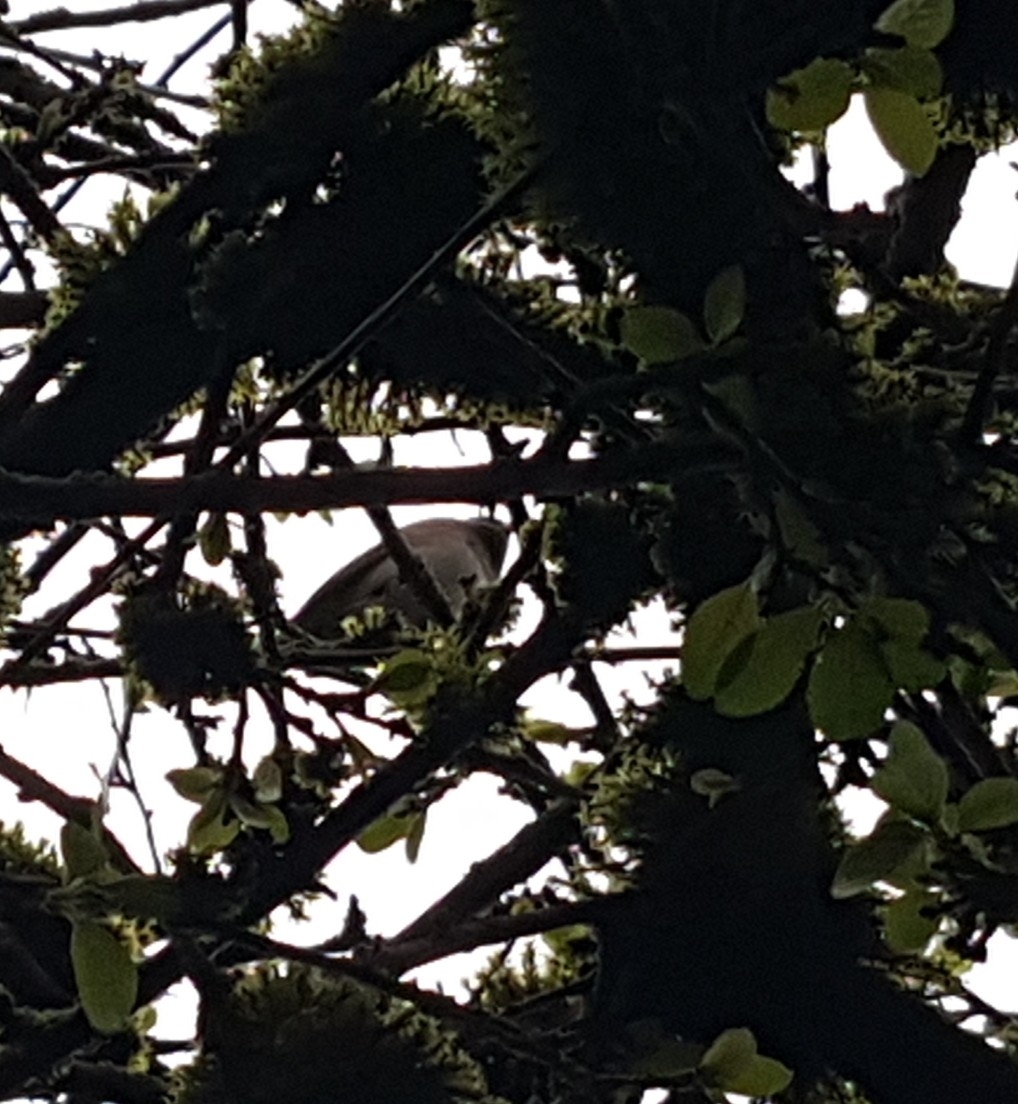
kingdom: Animalia
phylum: Chordata
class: Aves
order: Passeriformes
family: Aegithalidae
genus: Psaltriparus
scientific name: Psaltriparus minimus
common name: American bushtit
